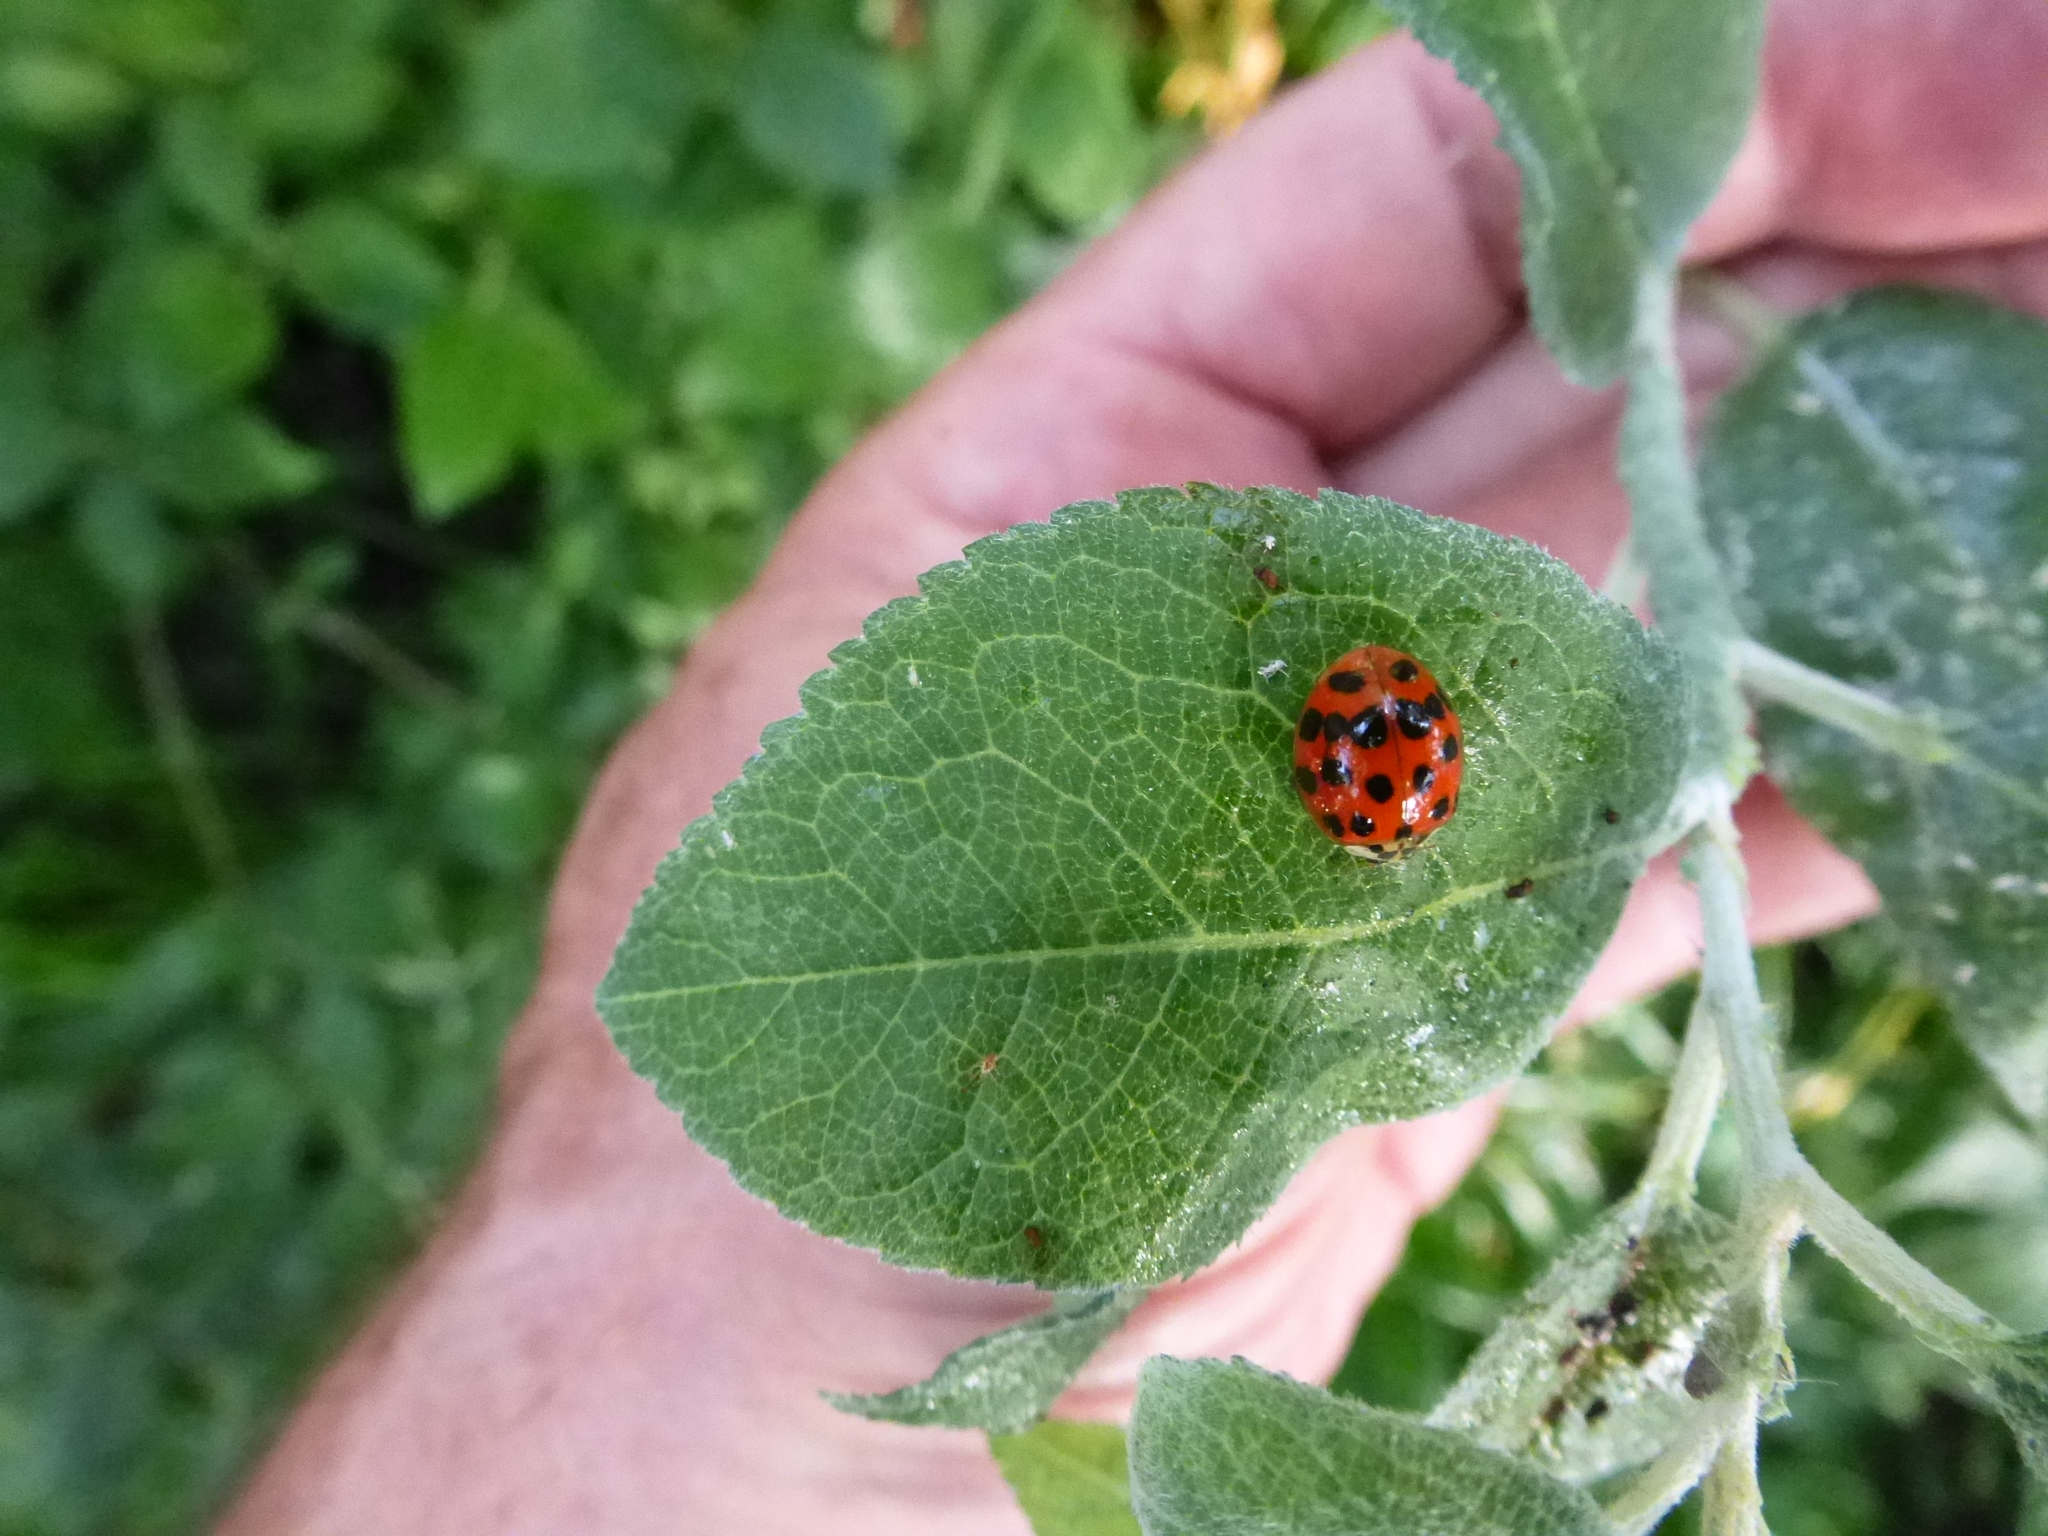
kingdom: Animalia
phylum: Arthropoda
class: Insecta
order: Coleoptera
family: Coccinellidae
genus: Harmonia
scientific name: Harmonia axyridis
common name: Harlequin ladybird
